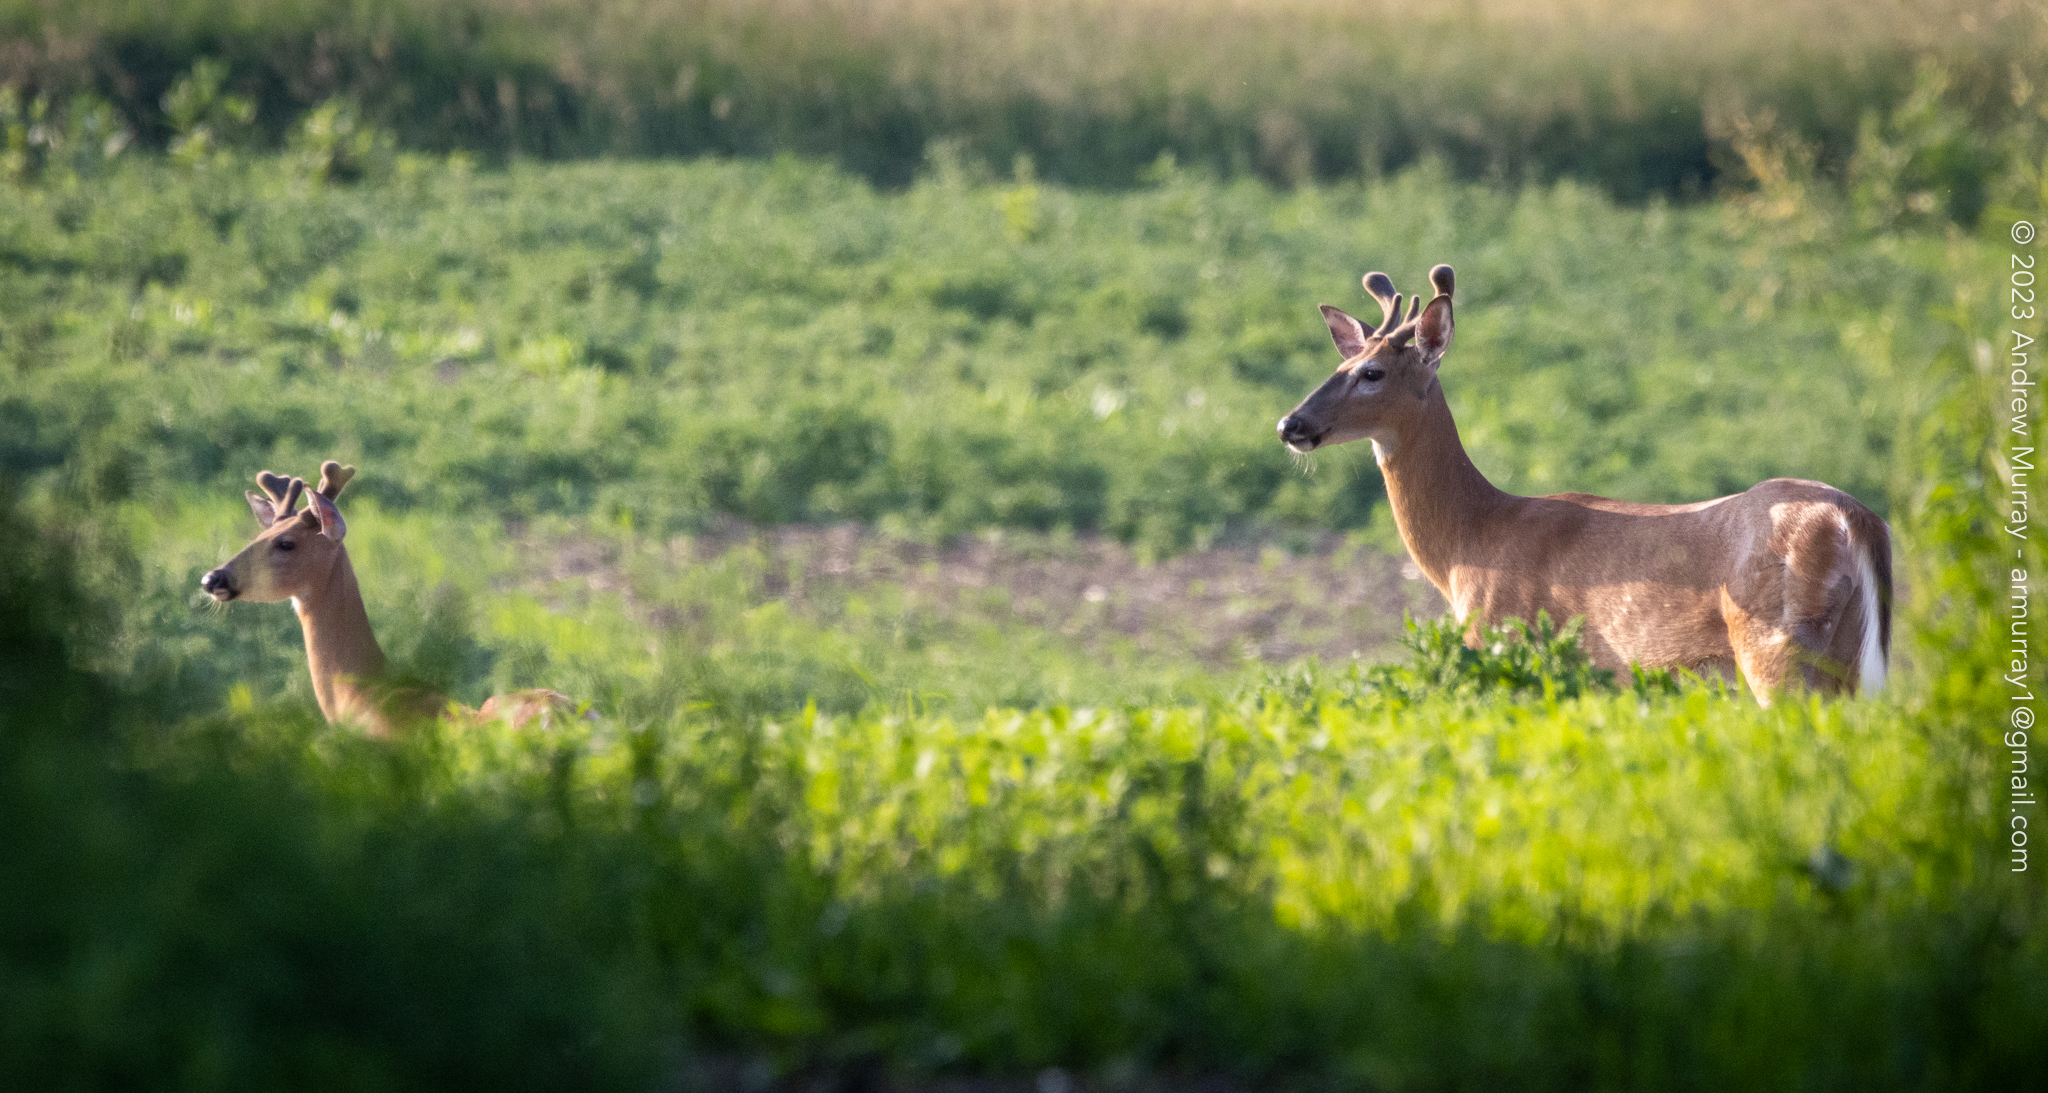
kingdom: Animalia
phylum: Chordata
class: Mammalia
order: Artiodactyla
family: Cervidae
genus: Odocoileus
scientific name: Odocoileus virginianus
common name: White-tailed deer
